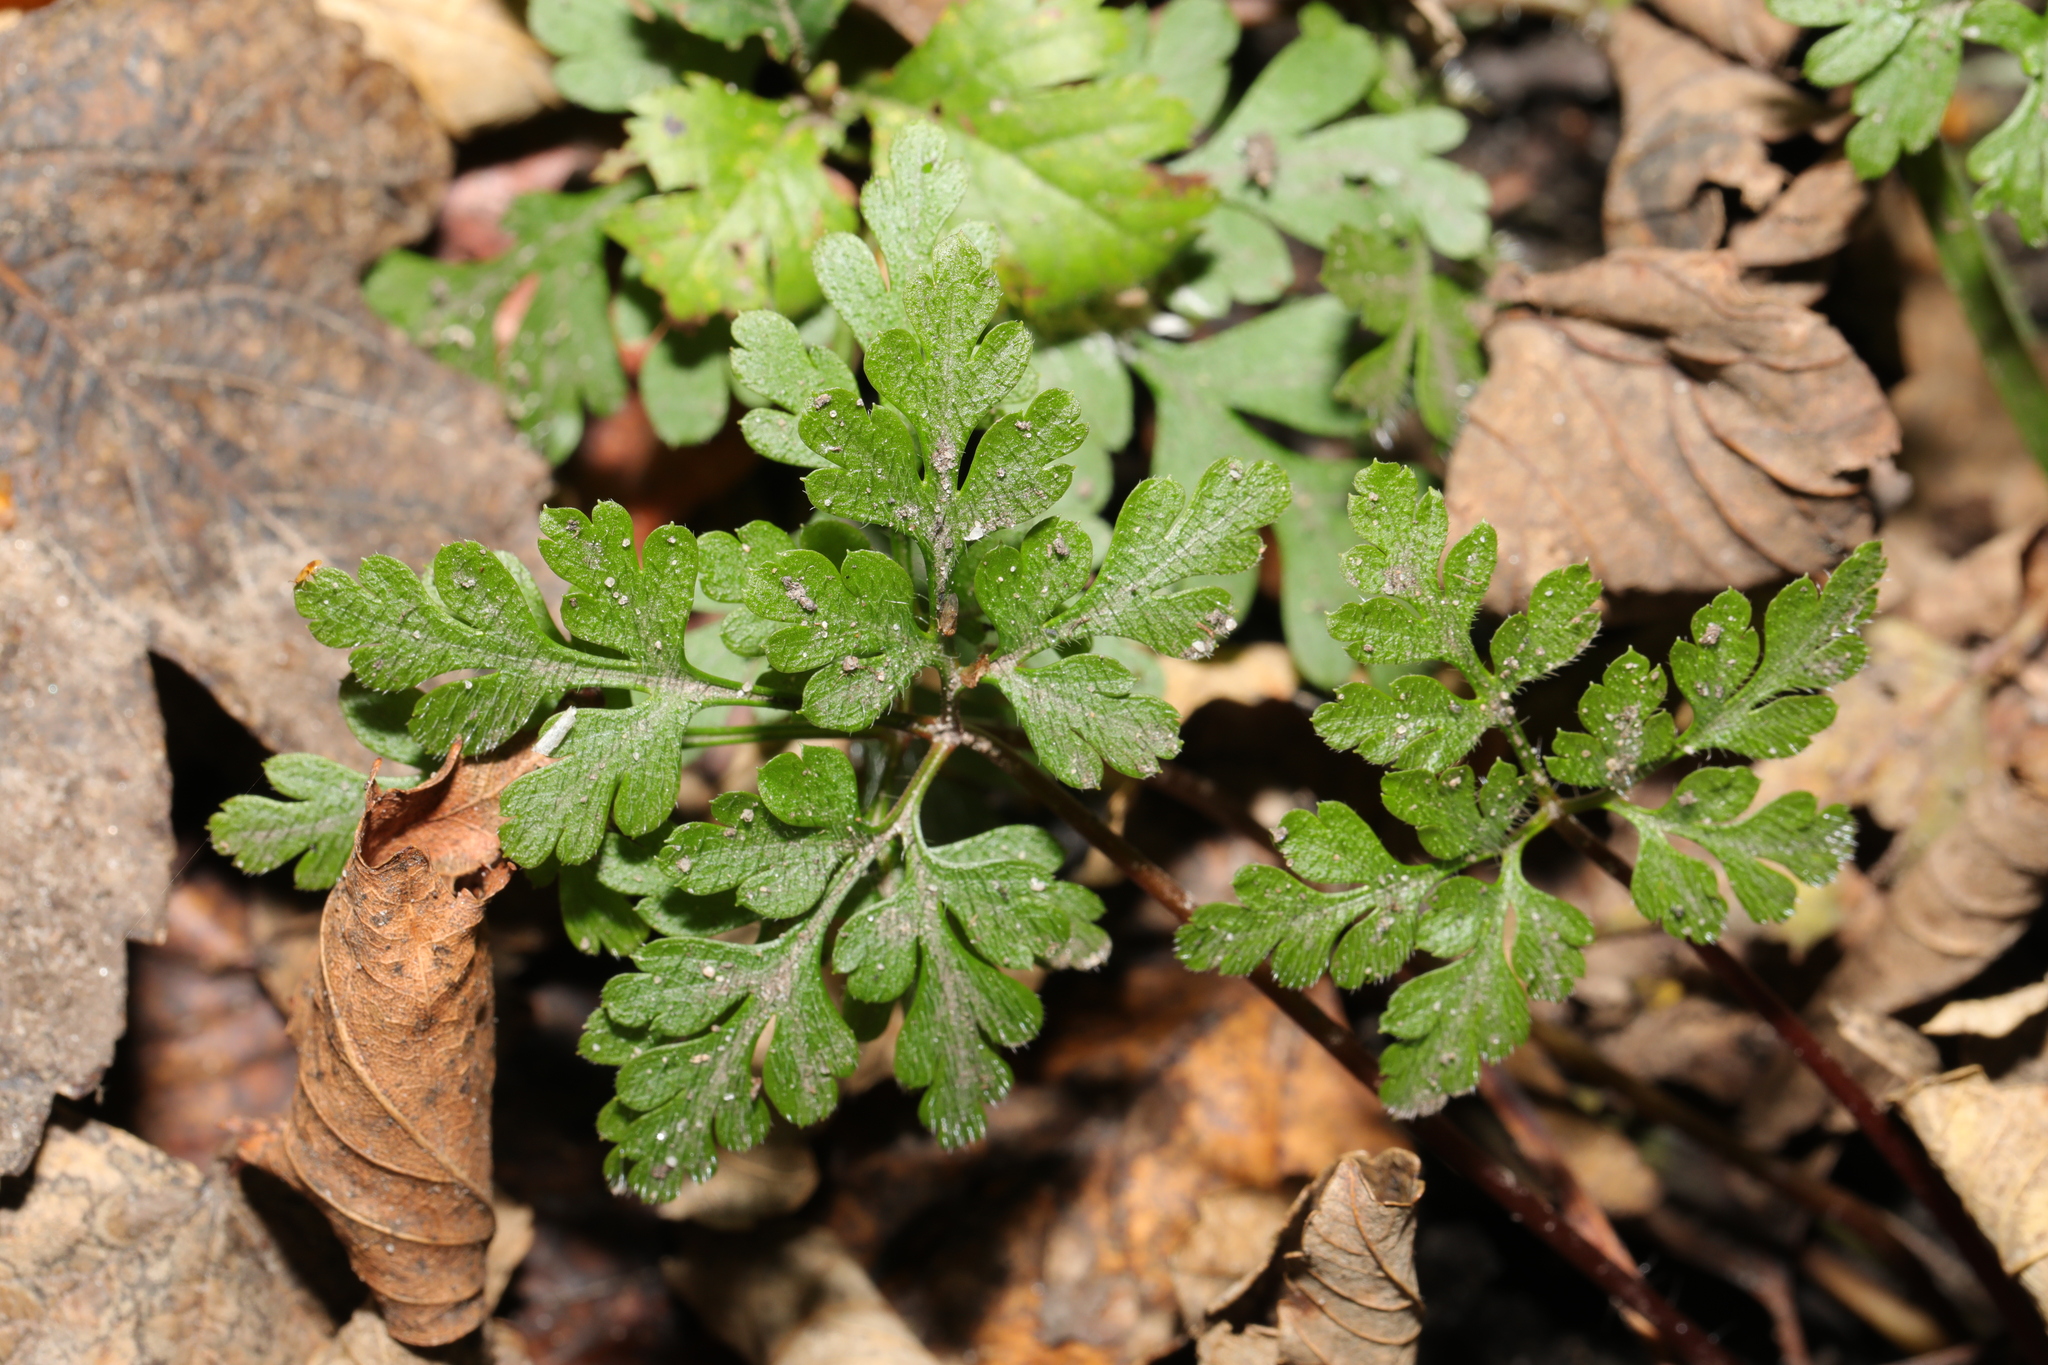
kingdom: Plantae
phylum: Tracheophyta
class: Magnoliopsida
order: Geraniales
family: Geraniaceae
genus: Geranium
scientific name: Geranium robertianum
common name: Herb-robert
